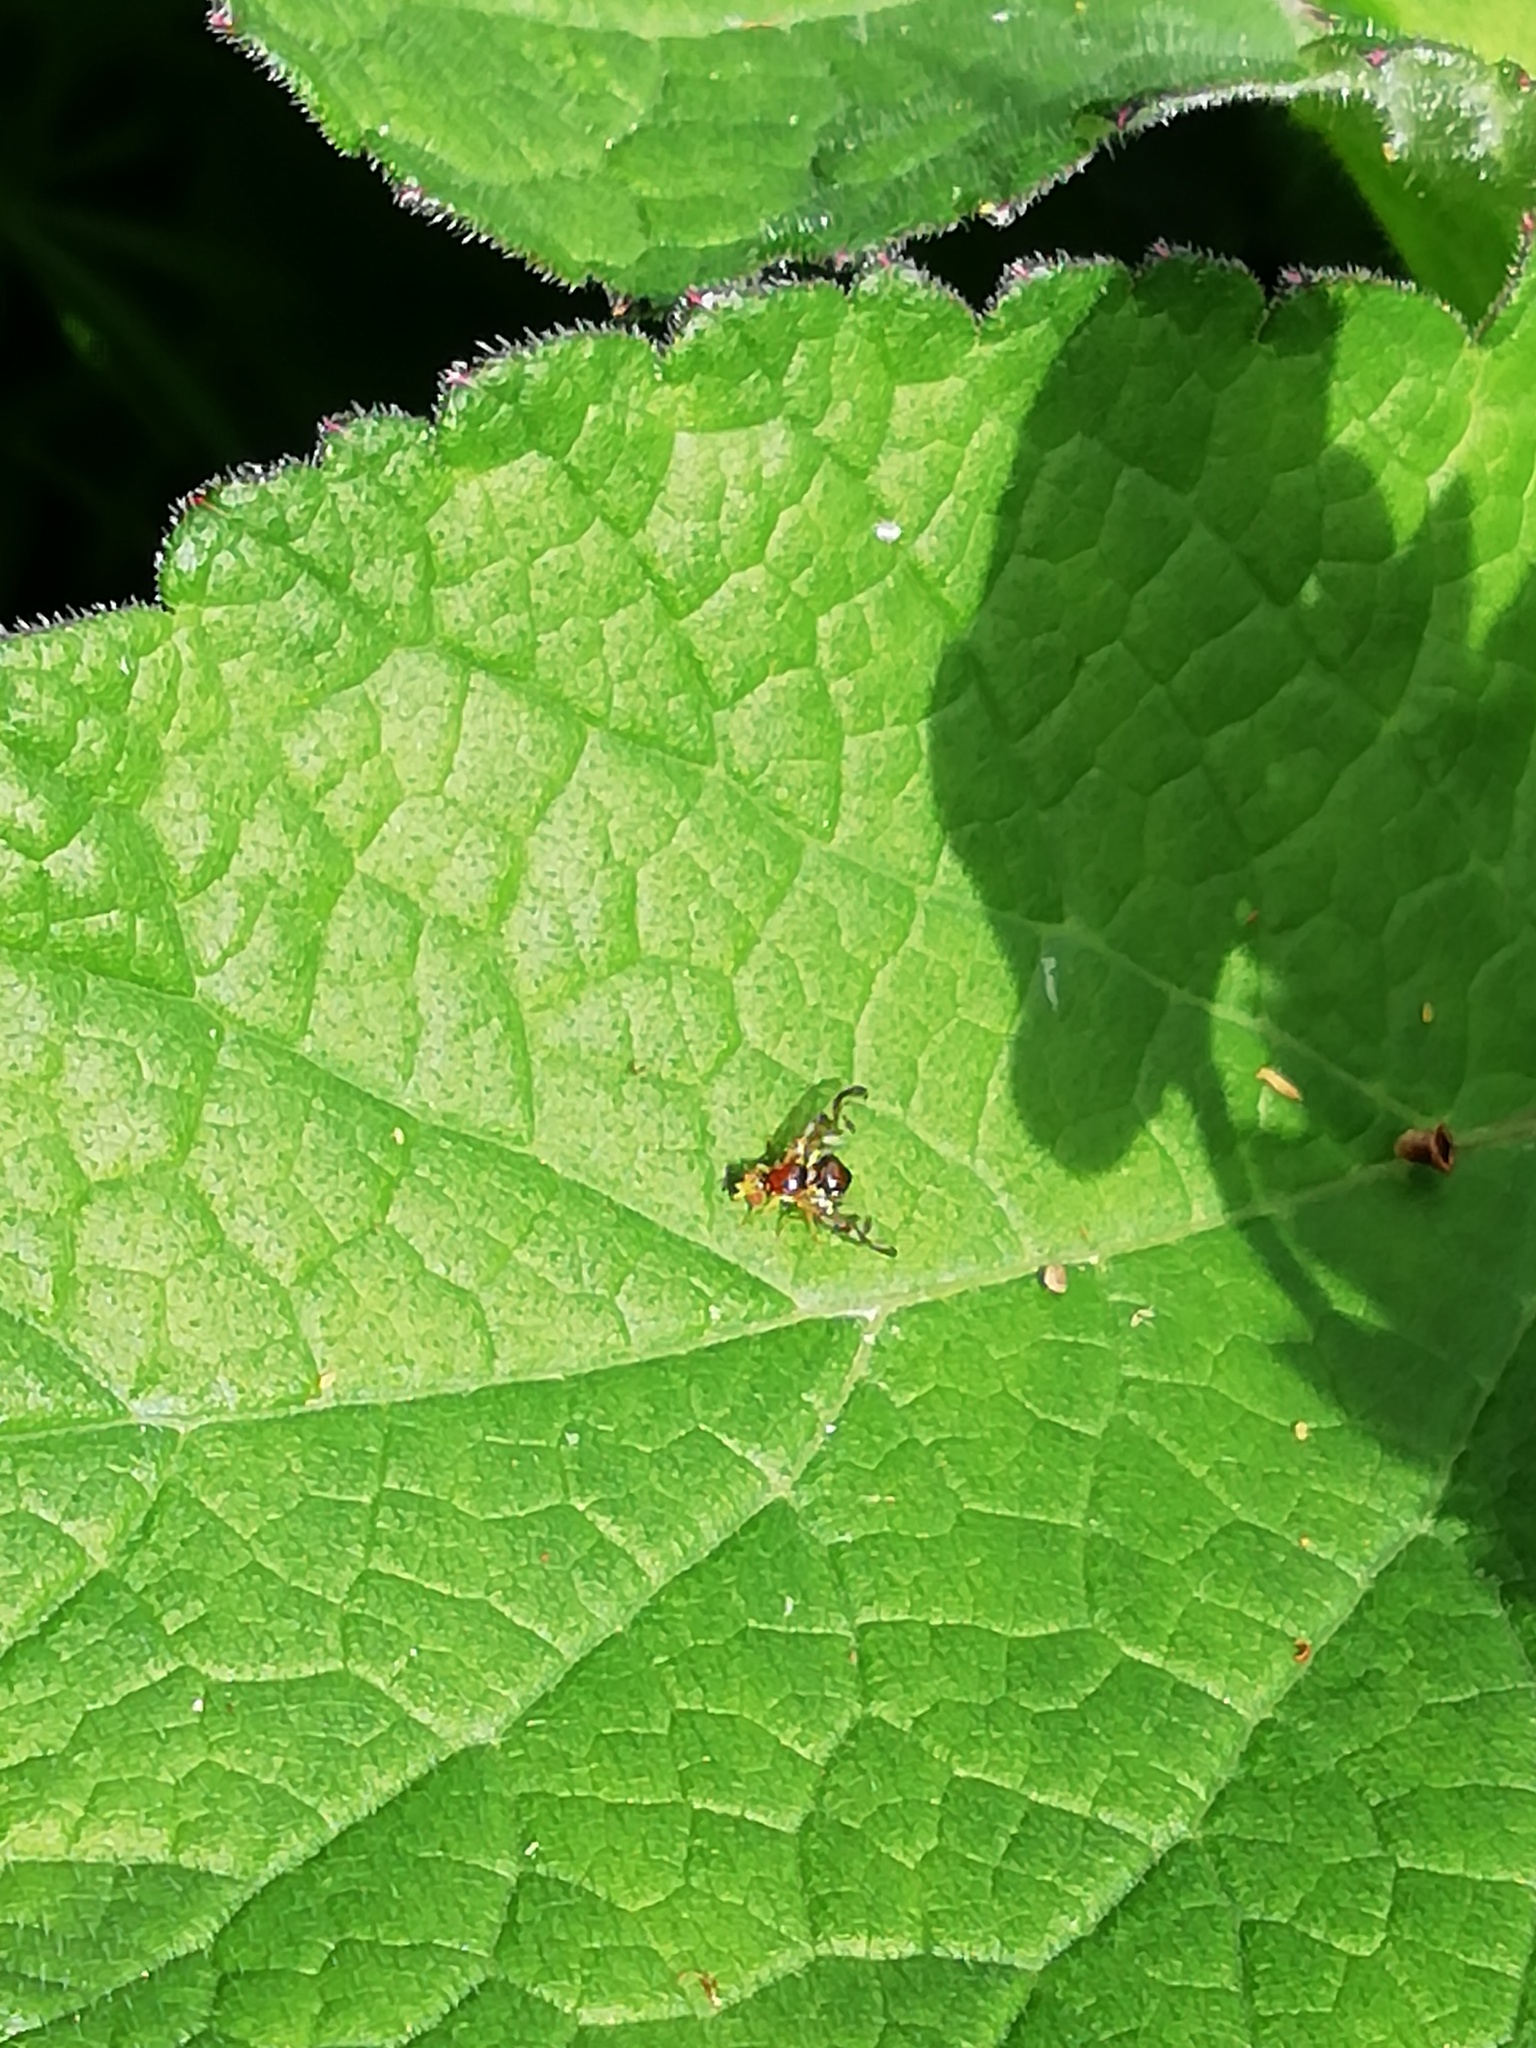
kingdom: Animalia
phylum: Arthropoda
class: Insecta
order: Diptera
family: Tephritidae
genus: Euleia
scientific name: Euleia heraclei
